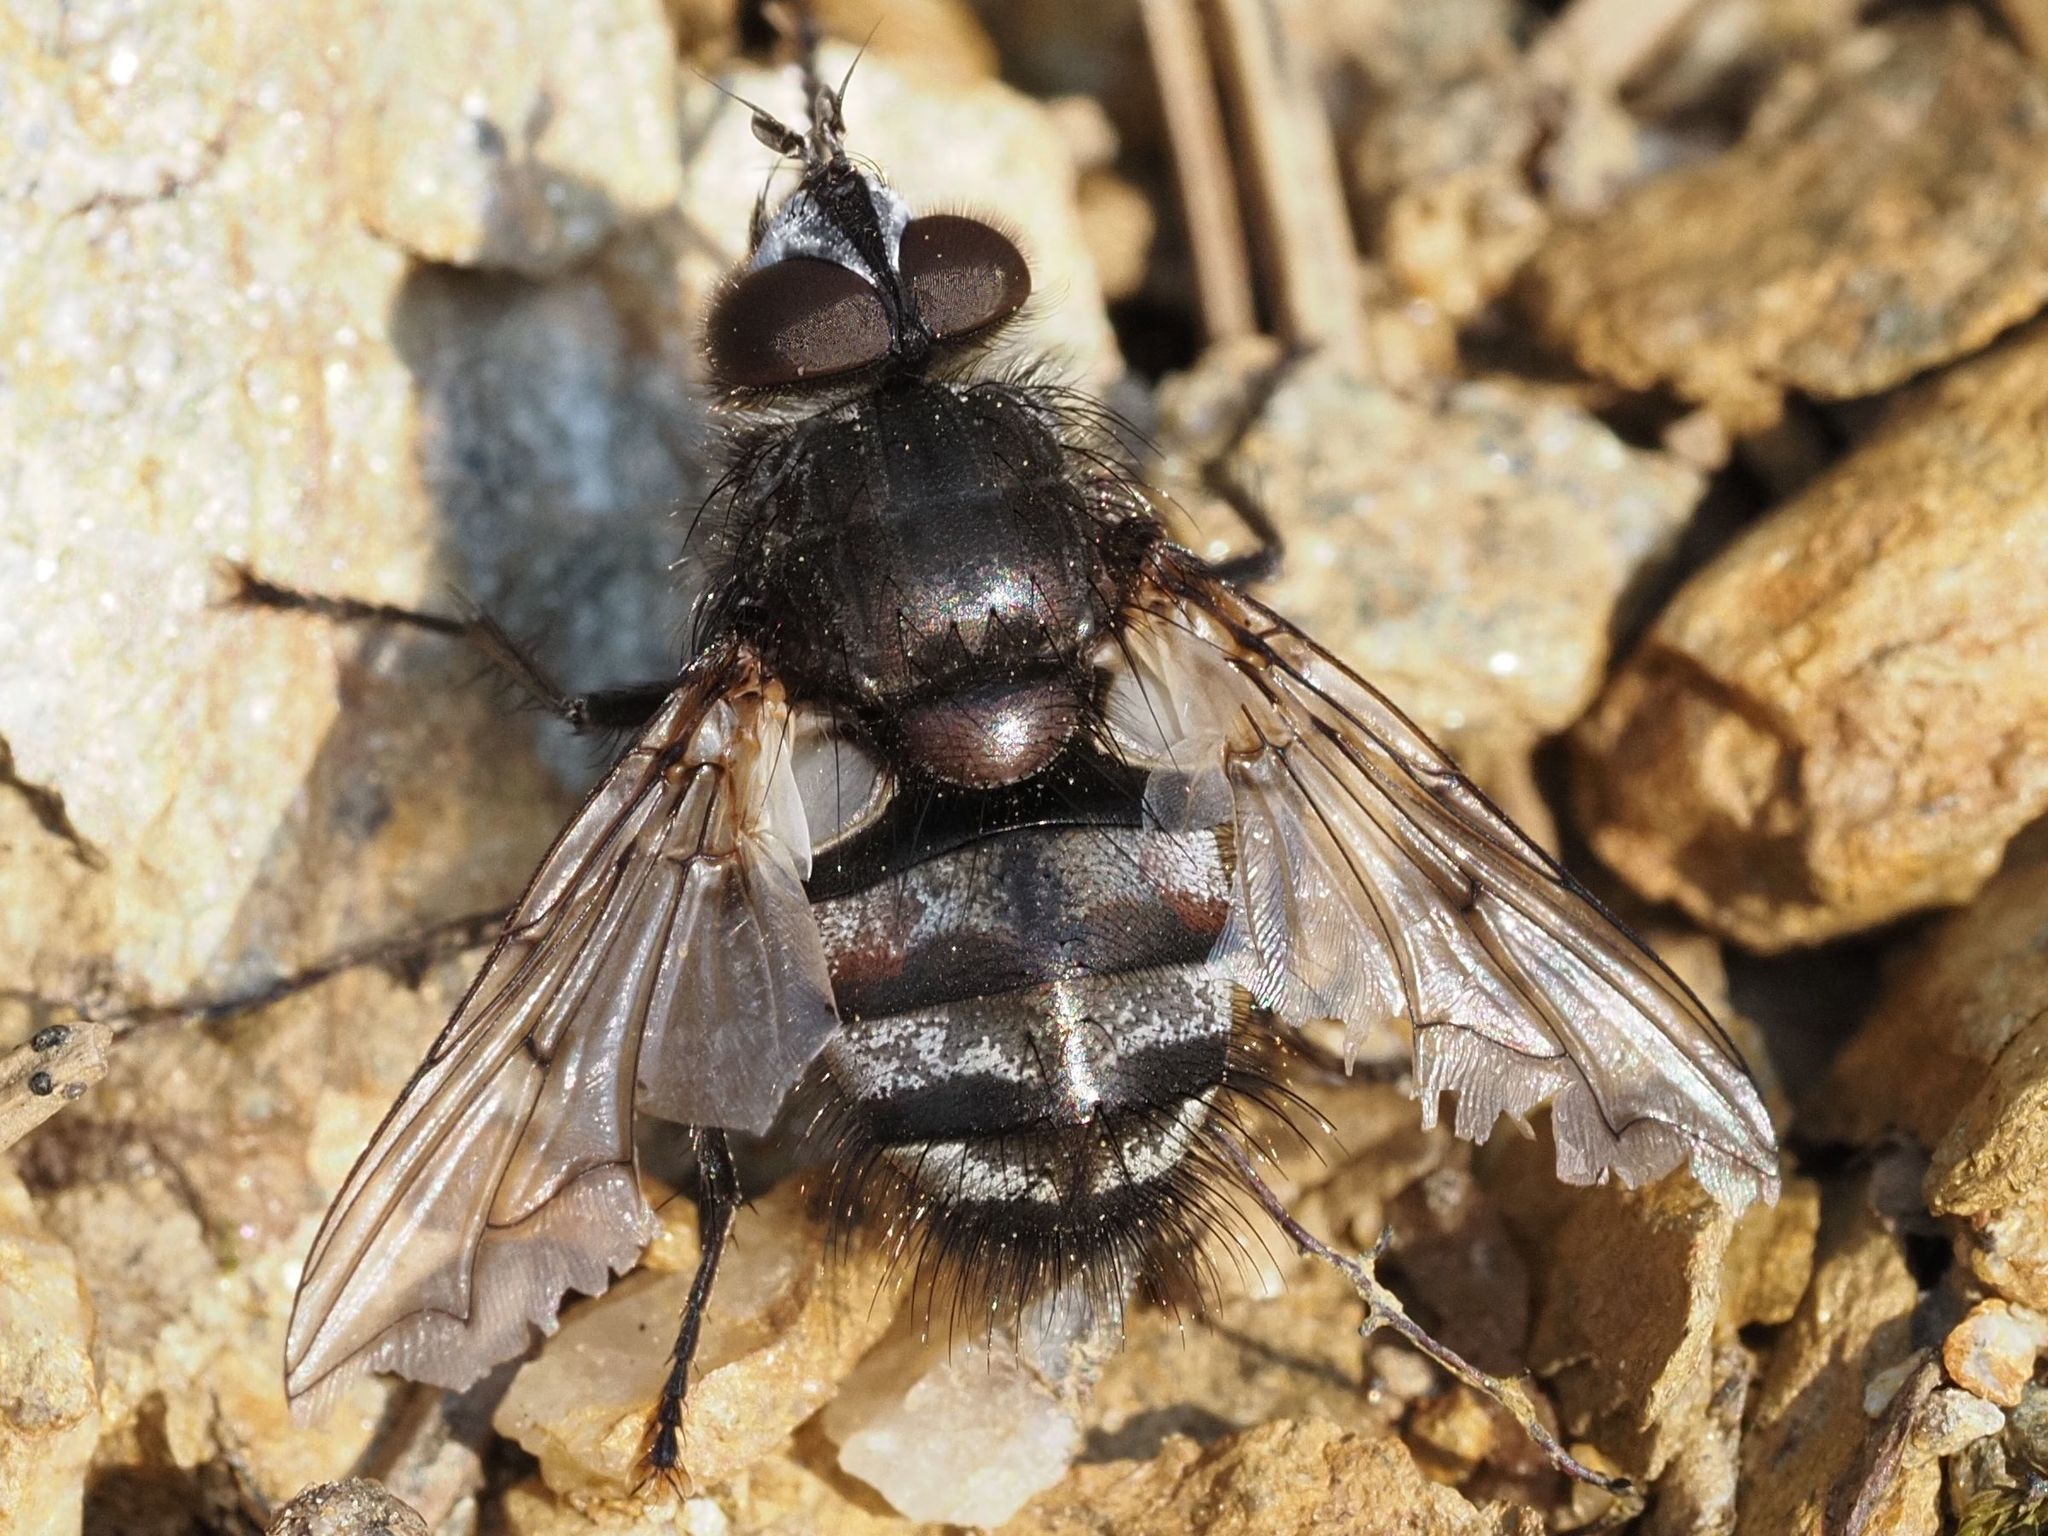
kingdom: Animalia
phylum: Arthropoda
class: Insecta
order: Diptera
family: Tachinidae
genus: Panzeria
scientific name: Panzeria puparum
